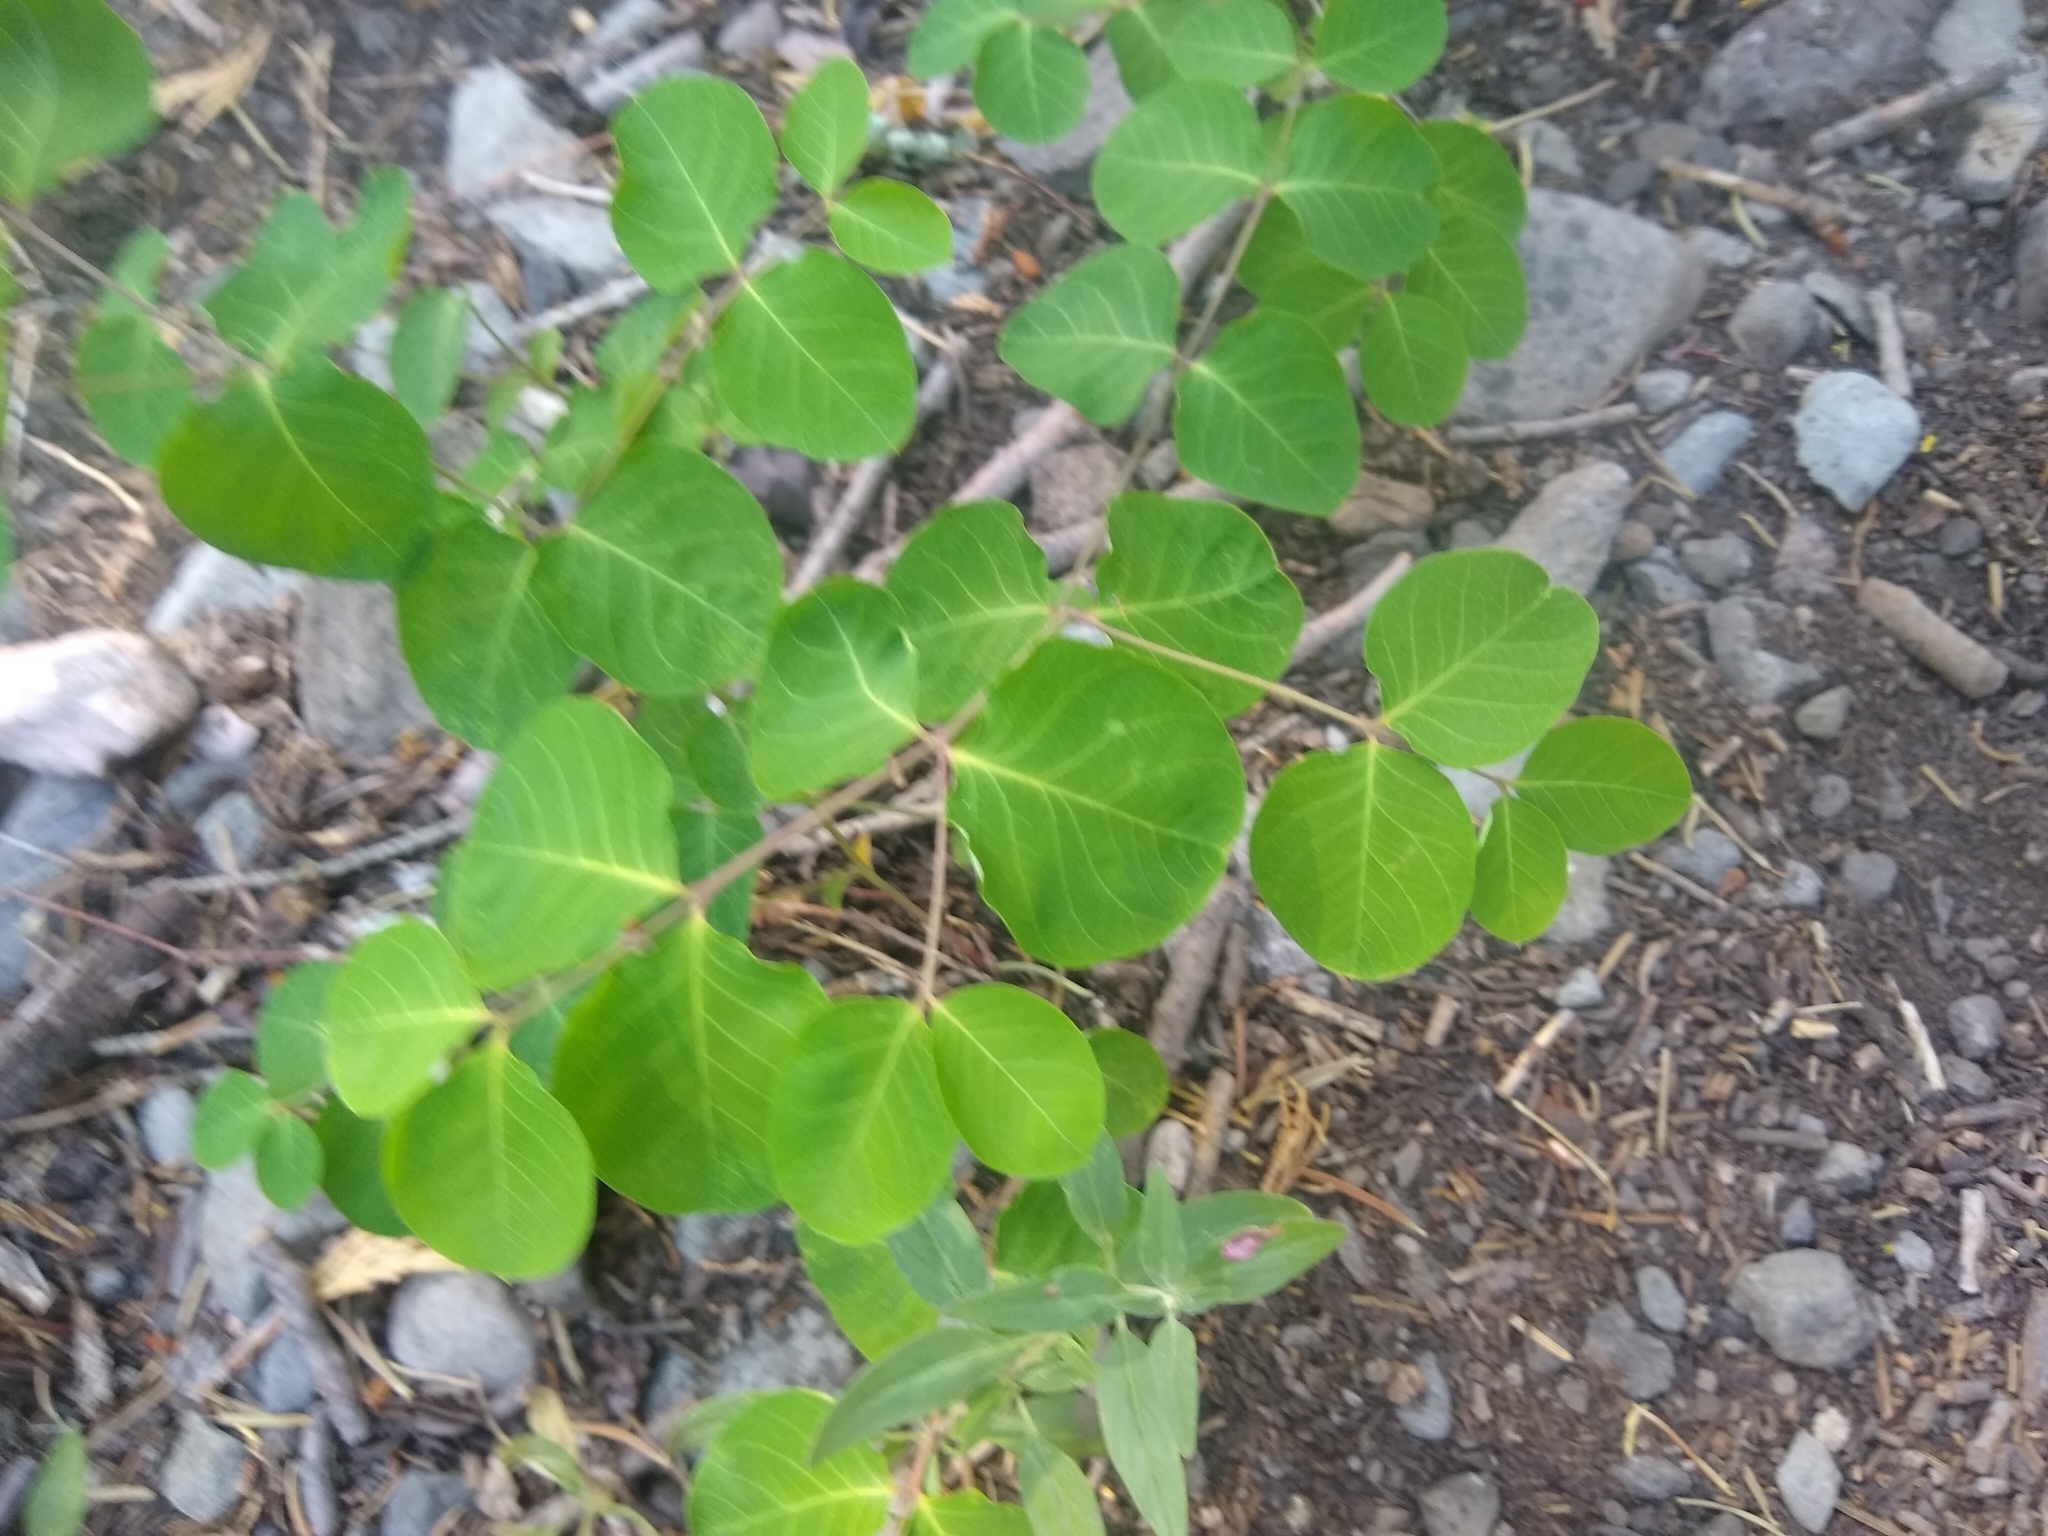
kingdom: Plantae
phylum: Tracheophyta
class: Magnoliopsida
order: Gentianales
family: Apocynaceae
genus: Apocynum
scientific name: Apocynum androsaemifolium
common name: Spreading dogbane
